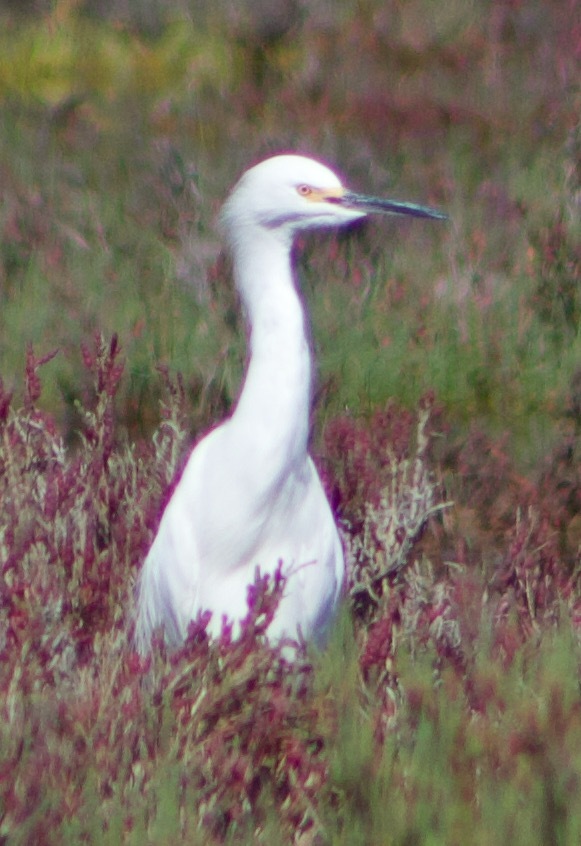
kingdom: Animalia
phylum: Chordata
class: Aves
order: Pelecaniformes
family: Ardeidae
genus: Egretta
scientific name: Egretta thula
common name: Snowy egret
